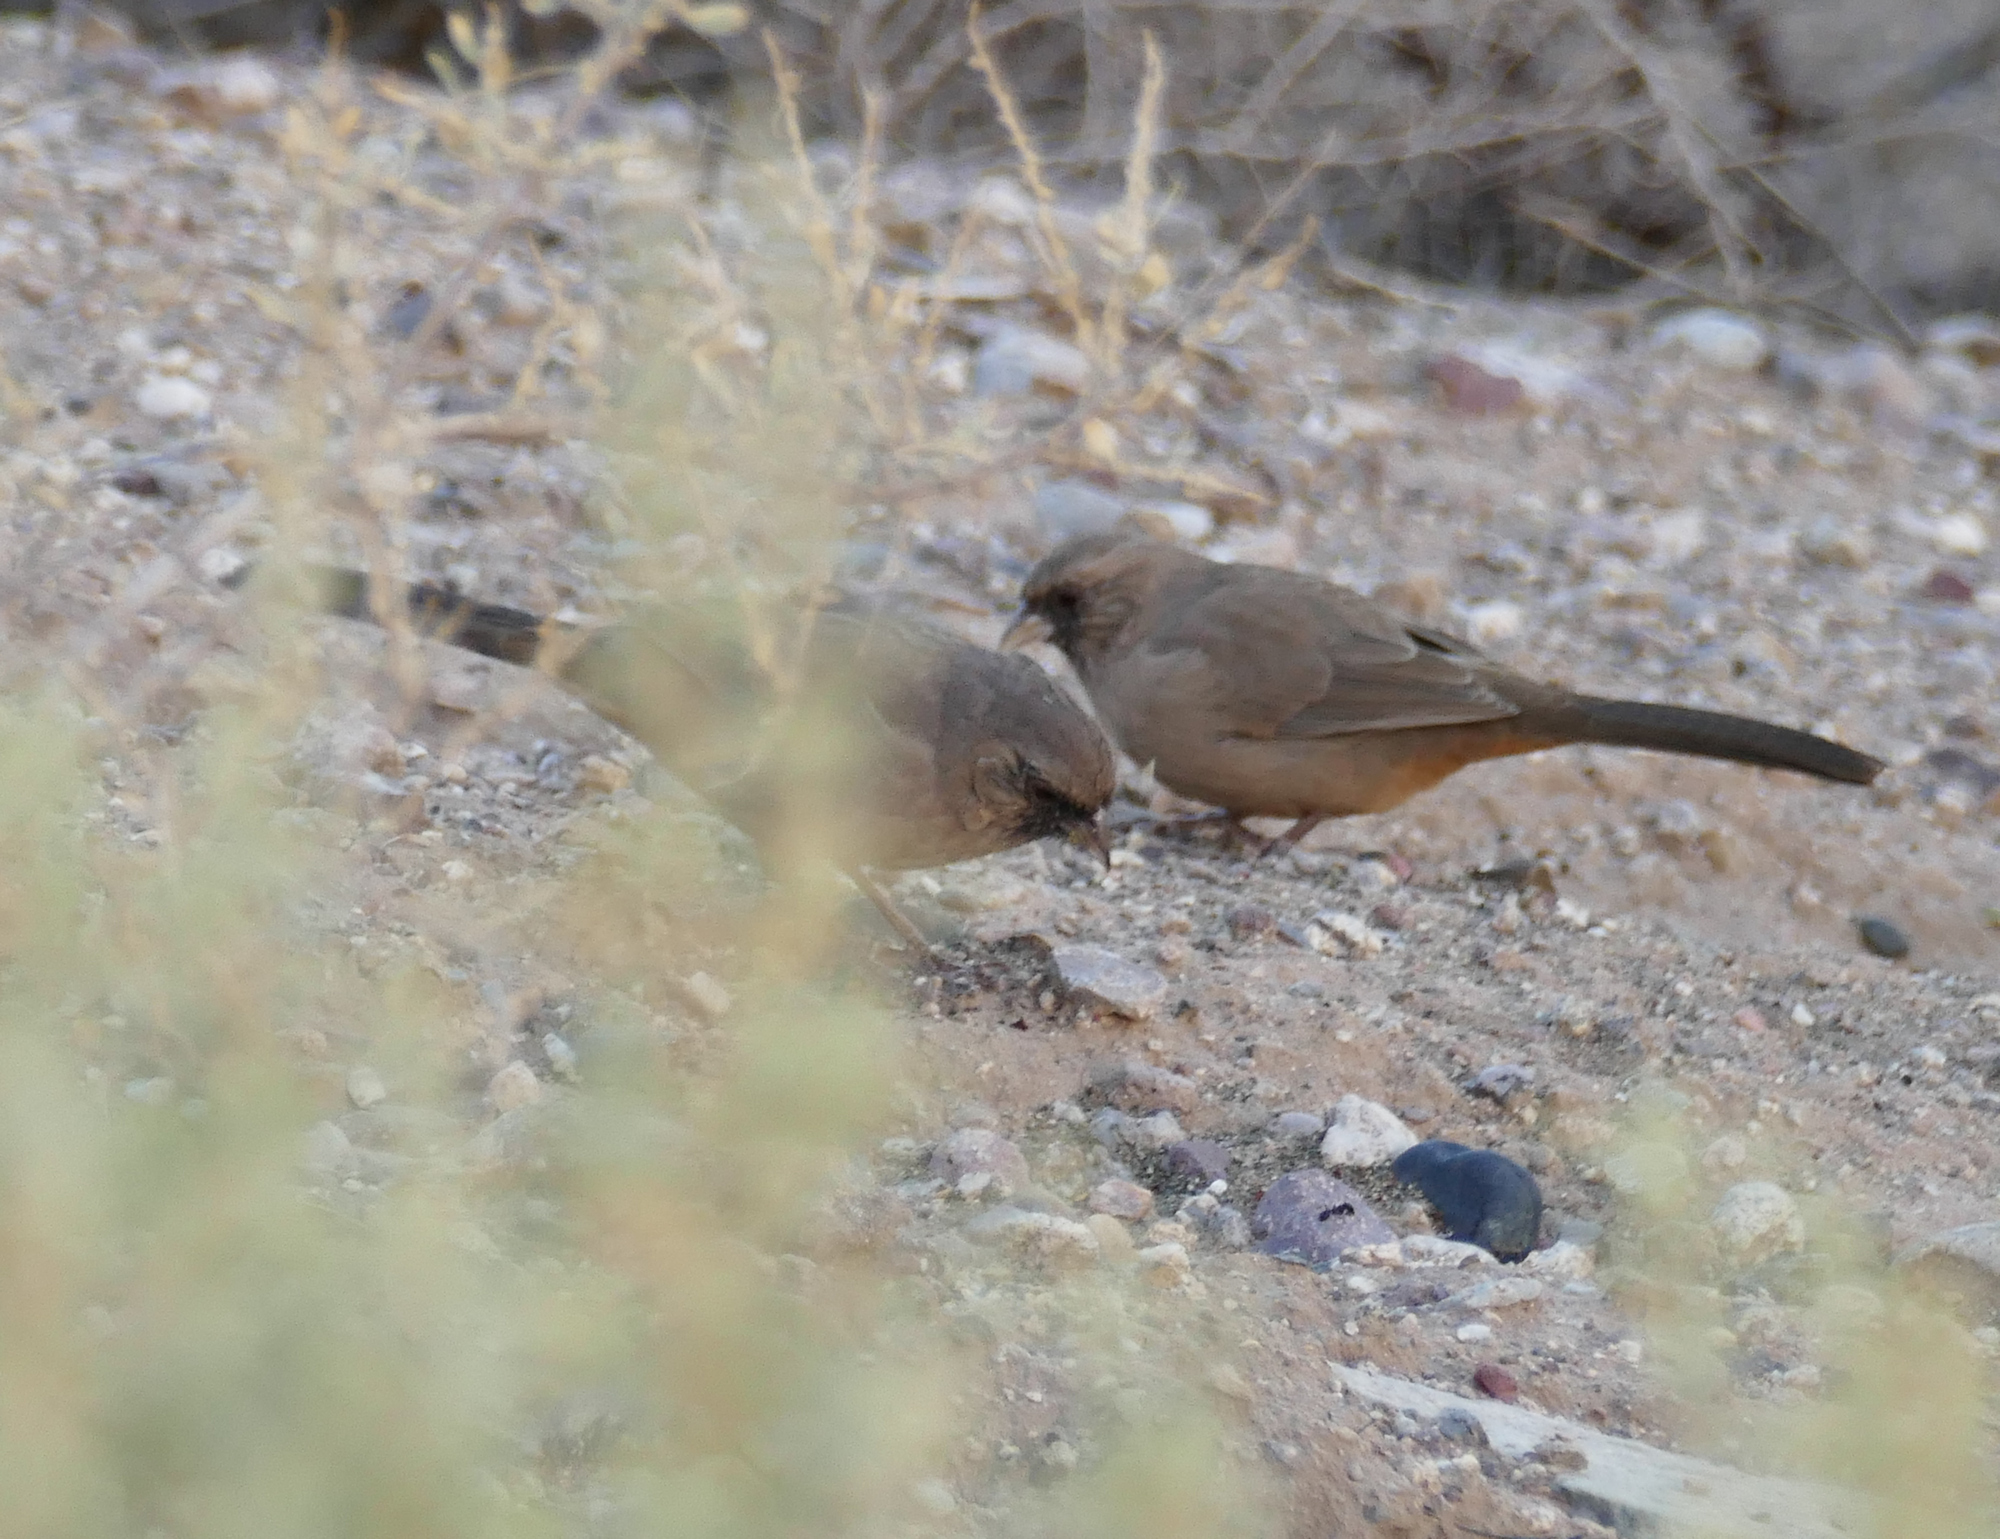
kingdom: Animalia
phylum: Chordata
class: Aves
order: Passeriformes
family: Passerellidae
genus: Melozone
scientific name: Melozone aberti
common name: Abert's towhee
